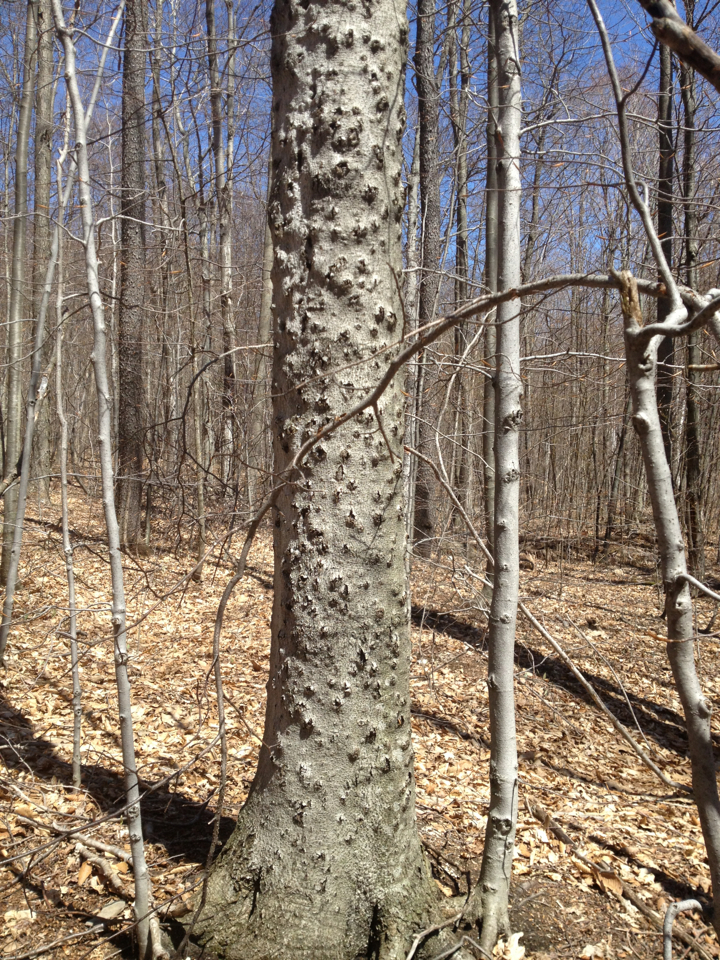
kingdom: Plantae
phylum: Tracheophyta
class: Magnoliopsida
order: Fagales
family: Fagaceae
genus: Fagus
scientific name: Fagus grandifolia
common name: American beech
